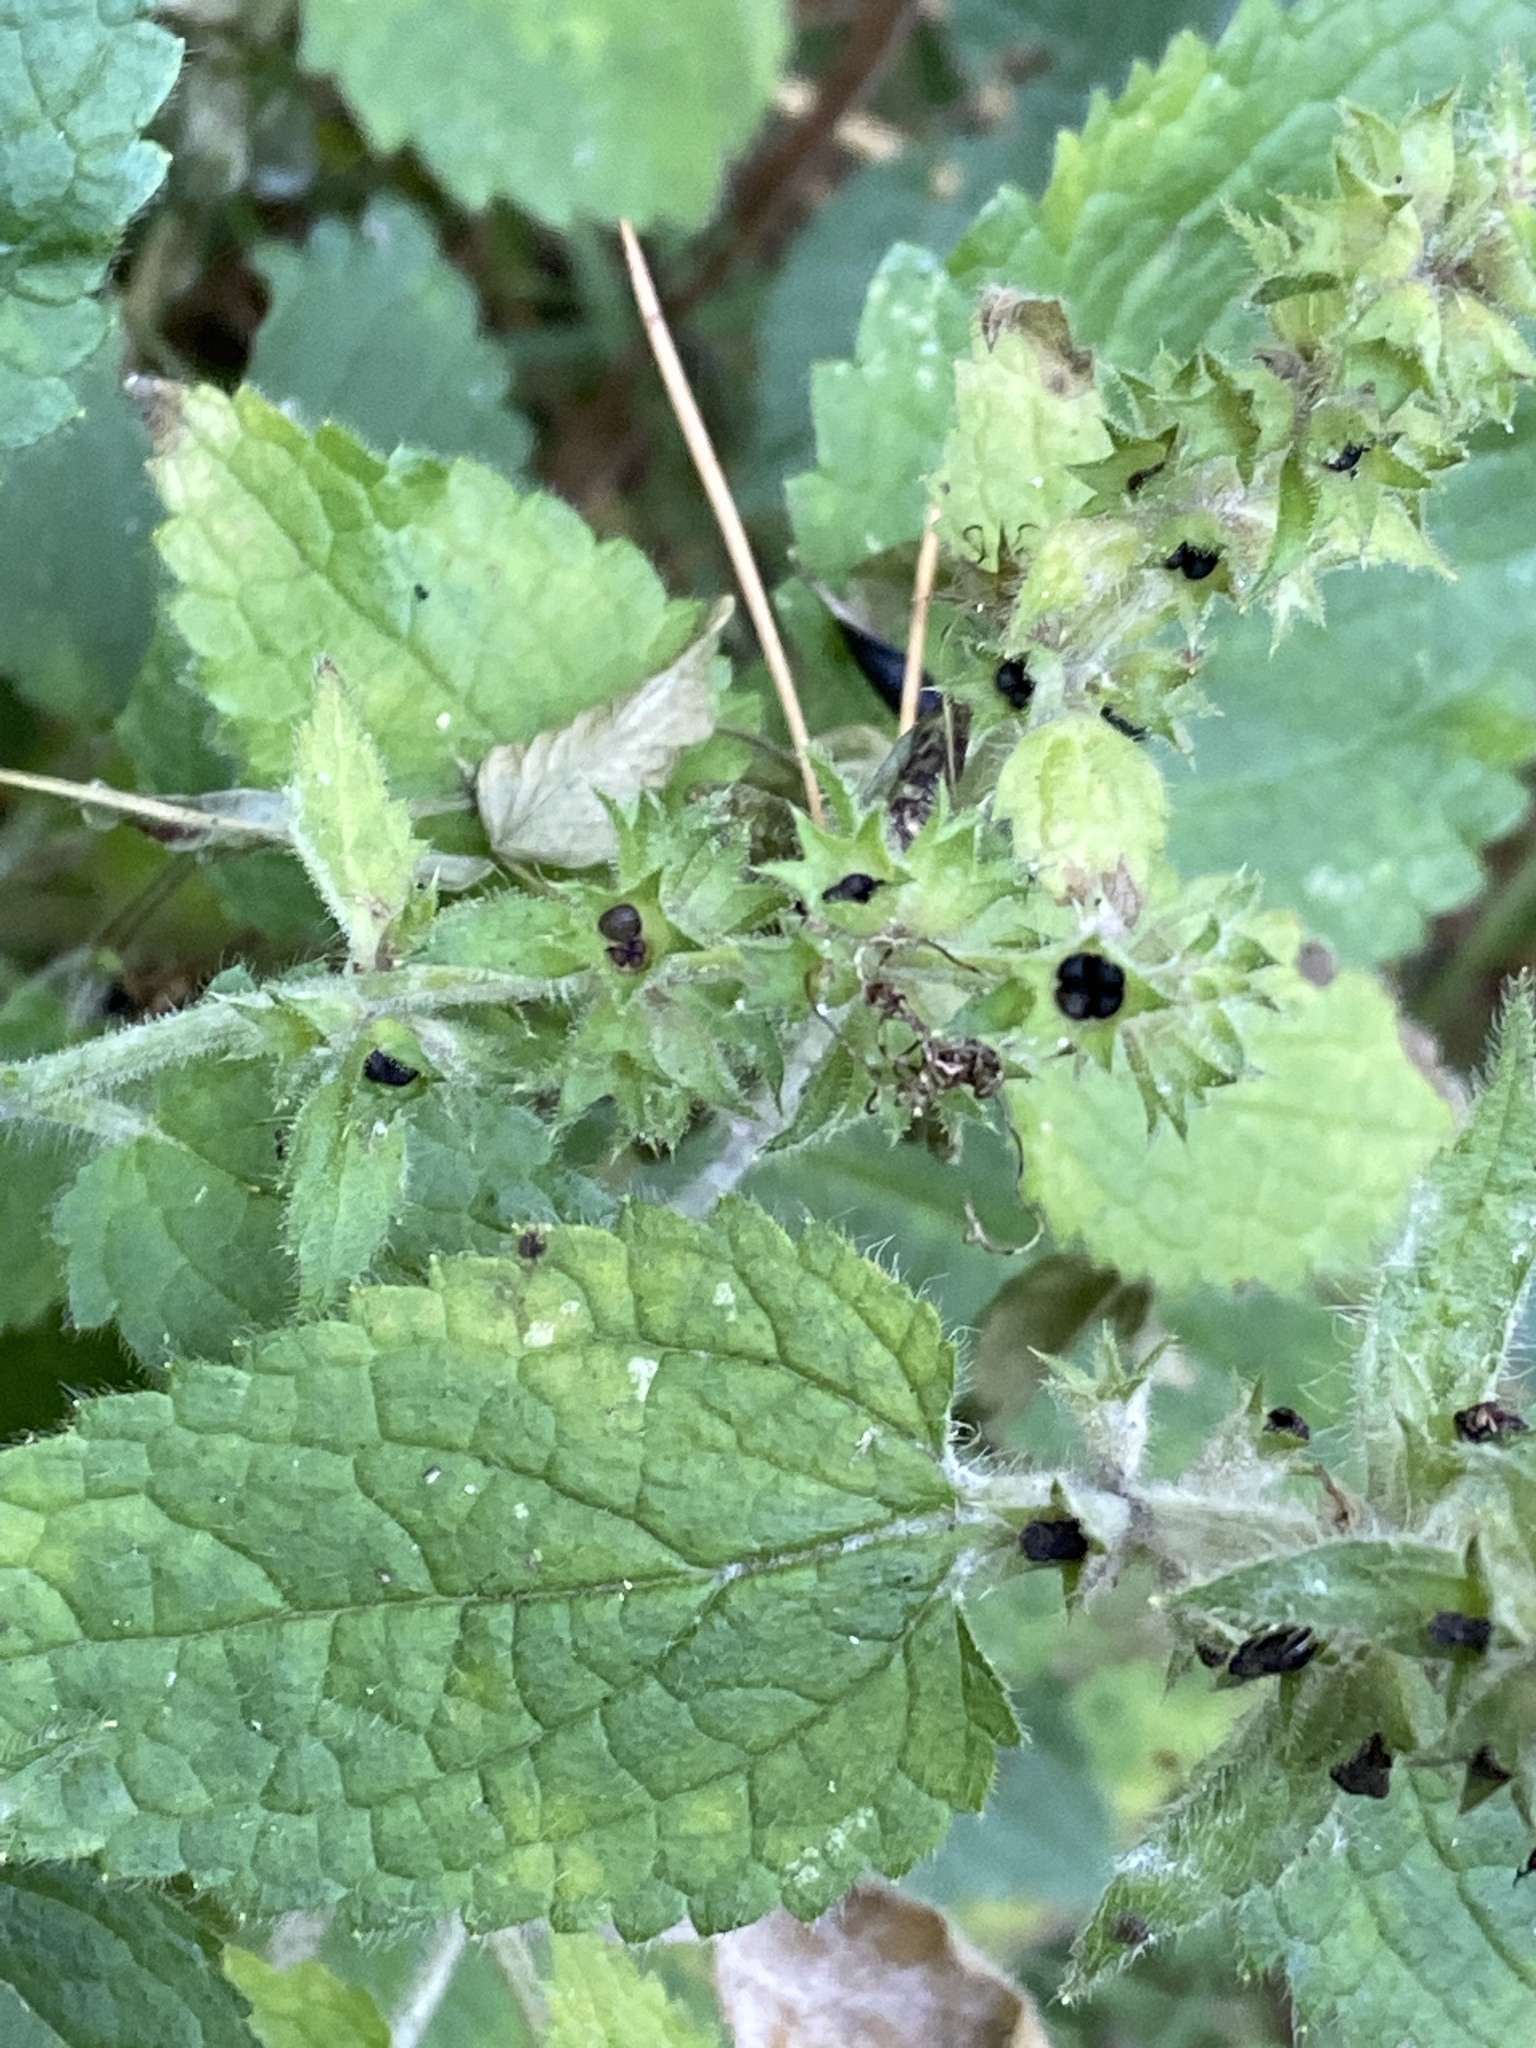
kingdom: Plantae
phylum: Tracheophyta
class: Magnoliopsida
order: Lamiales
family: Lamiaceae
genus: Stachys
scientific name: Stachys sylvatica
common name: Hedge woundwort
